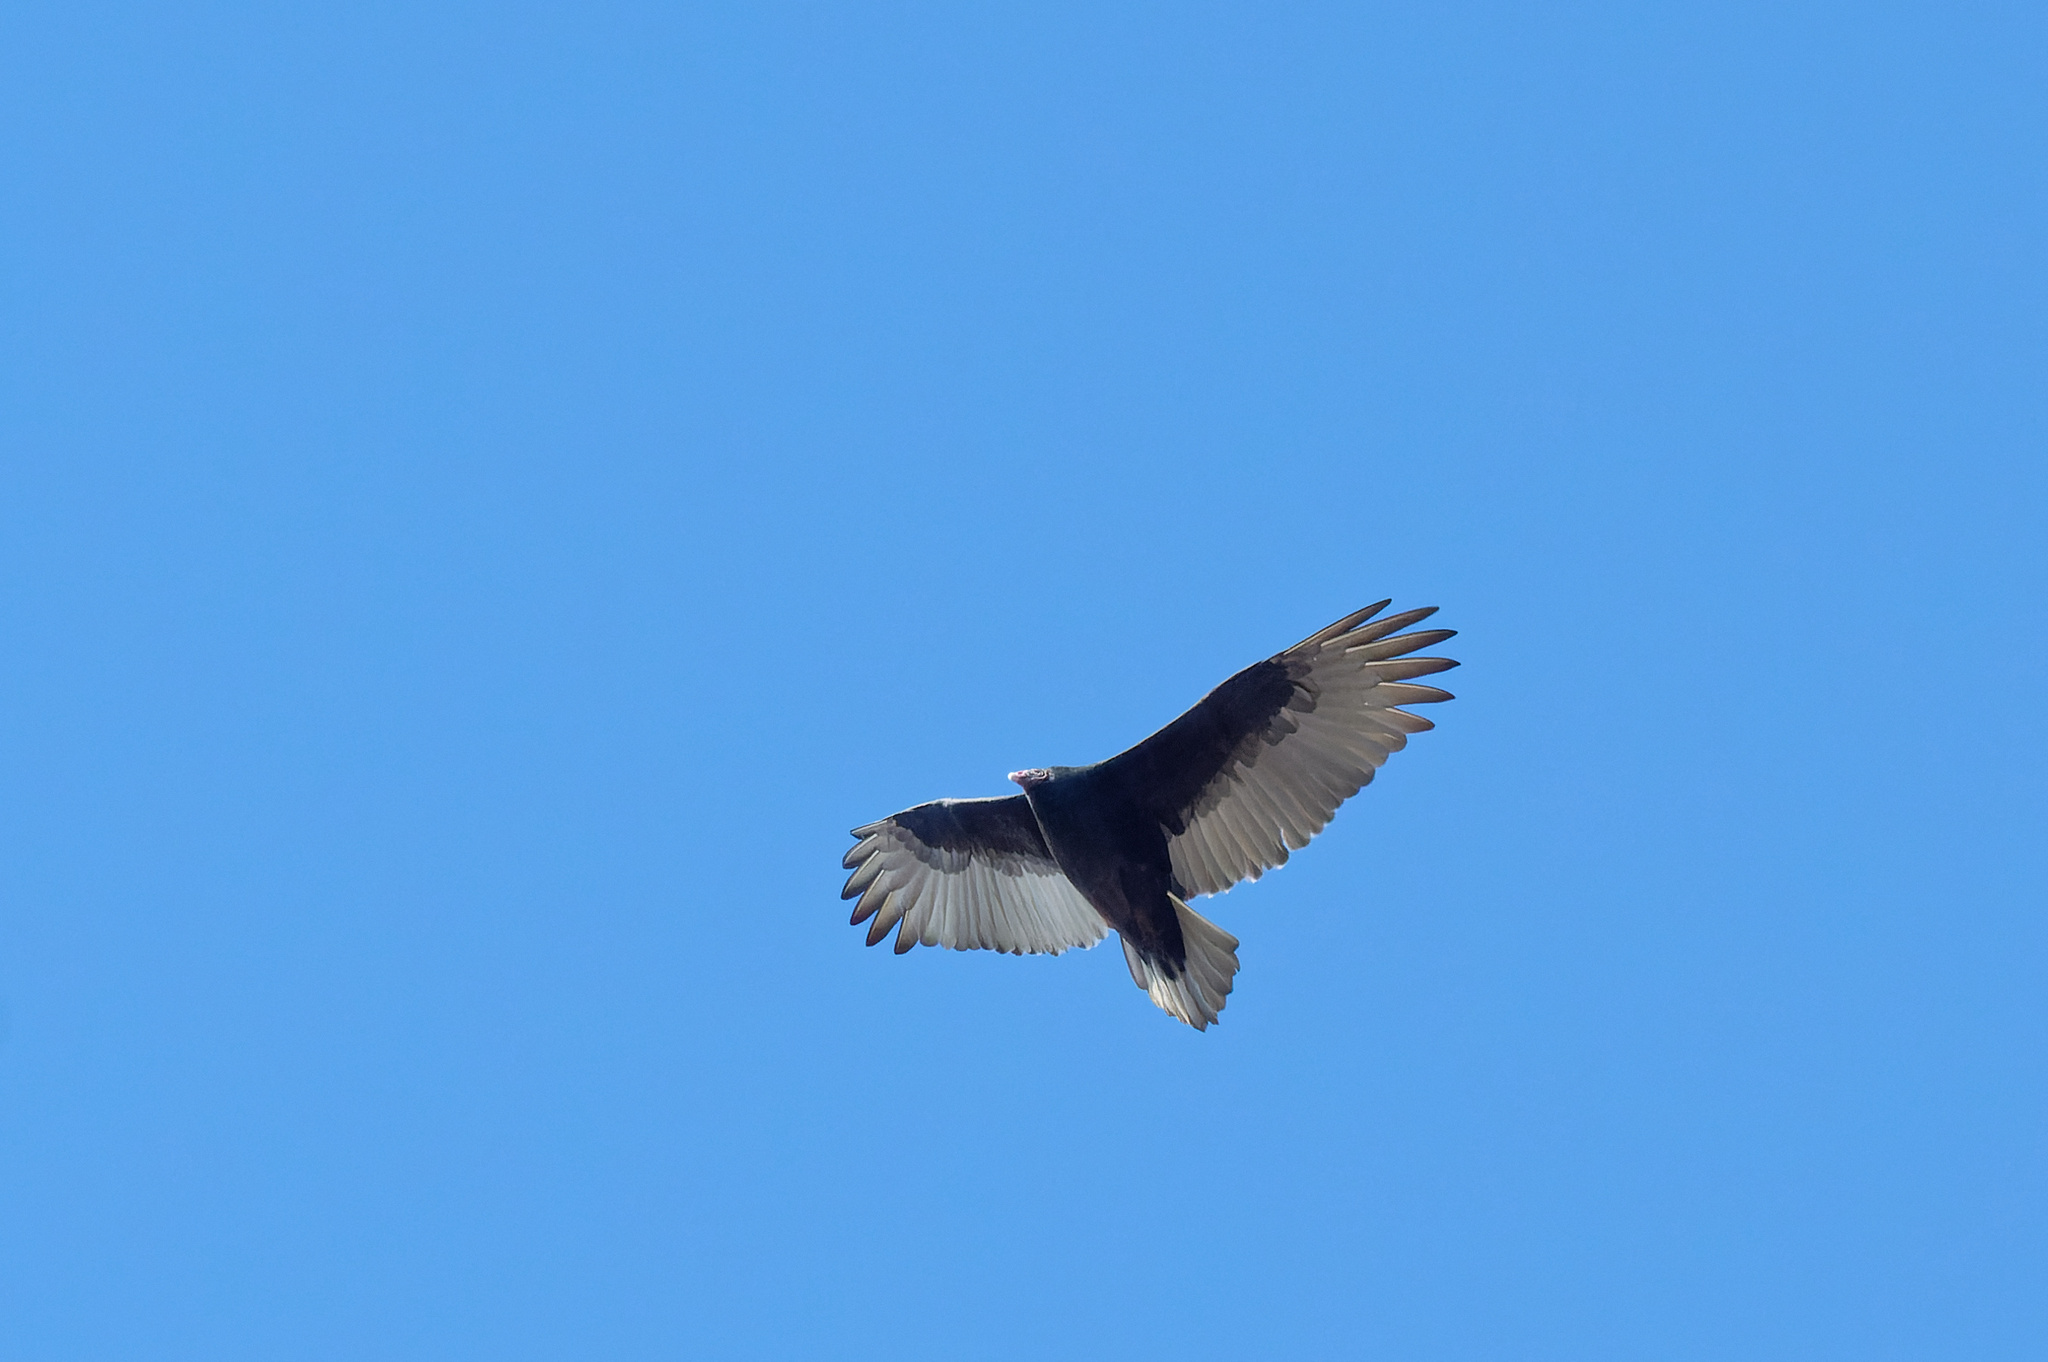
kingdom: Animalia
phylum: Chordata
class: Aves
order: Accipitriformes
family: Cathartidae
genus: Cathartes
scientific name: Cathartes aura
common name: Turkey vulture
